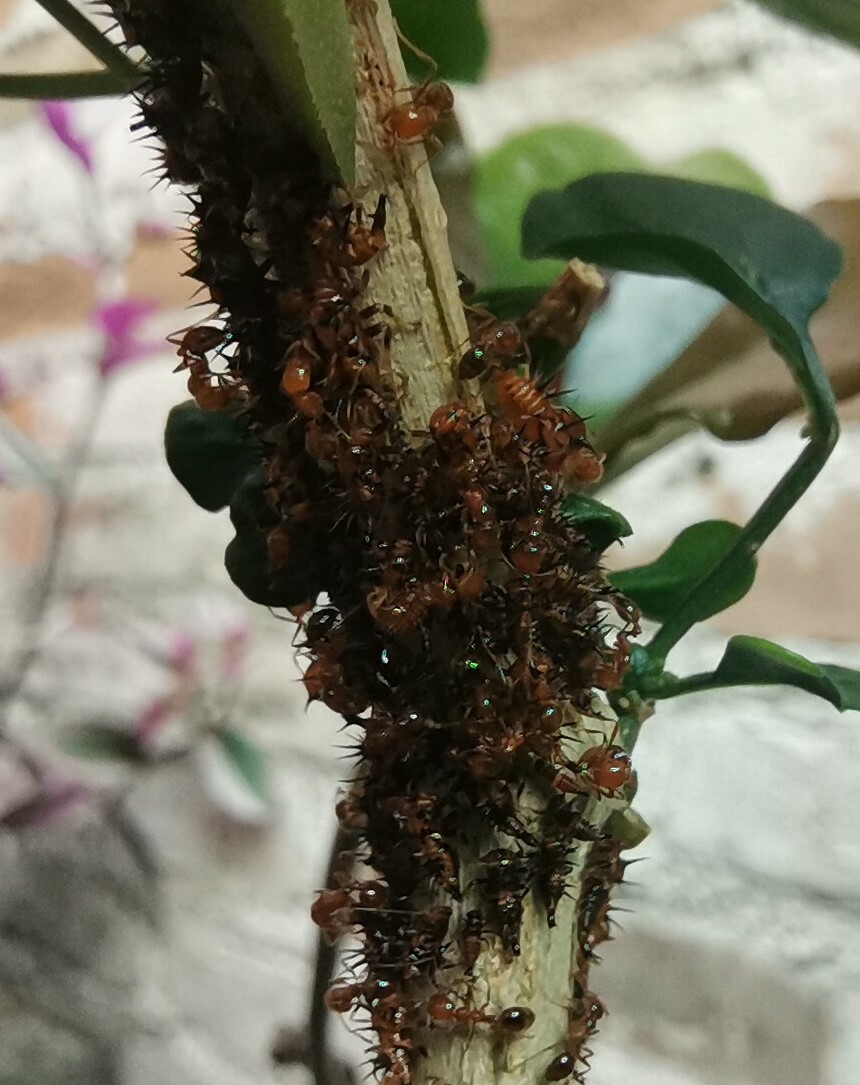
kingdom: Animalia
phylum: Arthropoda
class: Insecta
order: Hymenoptera
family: Formicidae
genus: Solenopsis
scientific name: Solenopsis geminata
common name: Tropical fire ant
